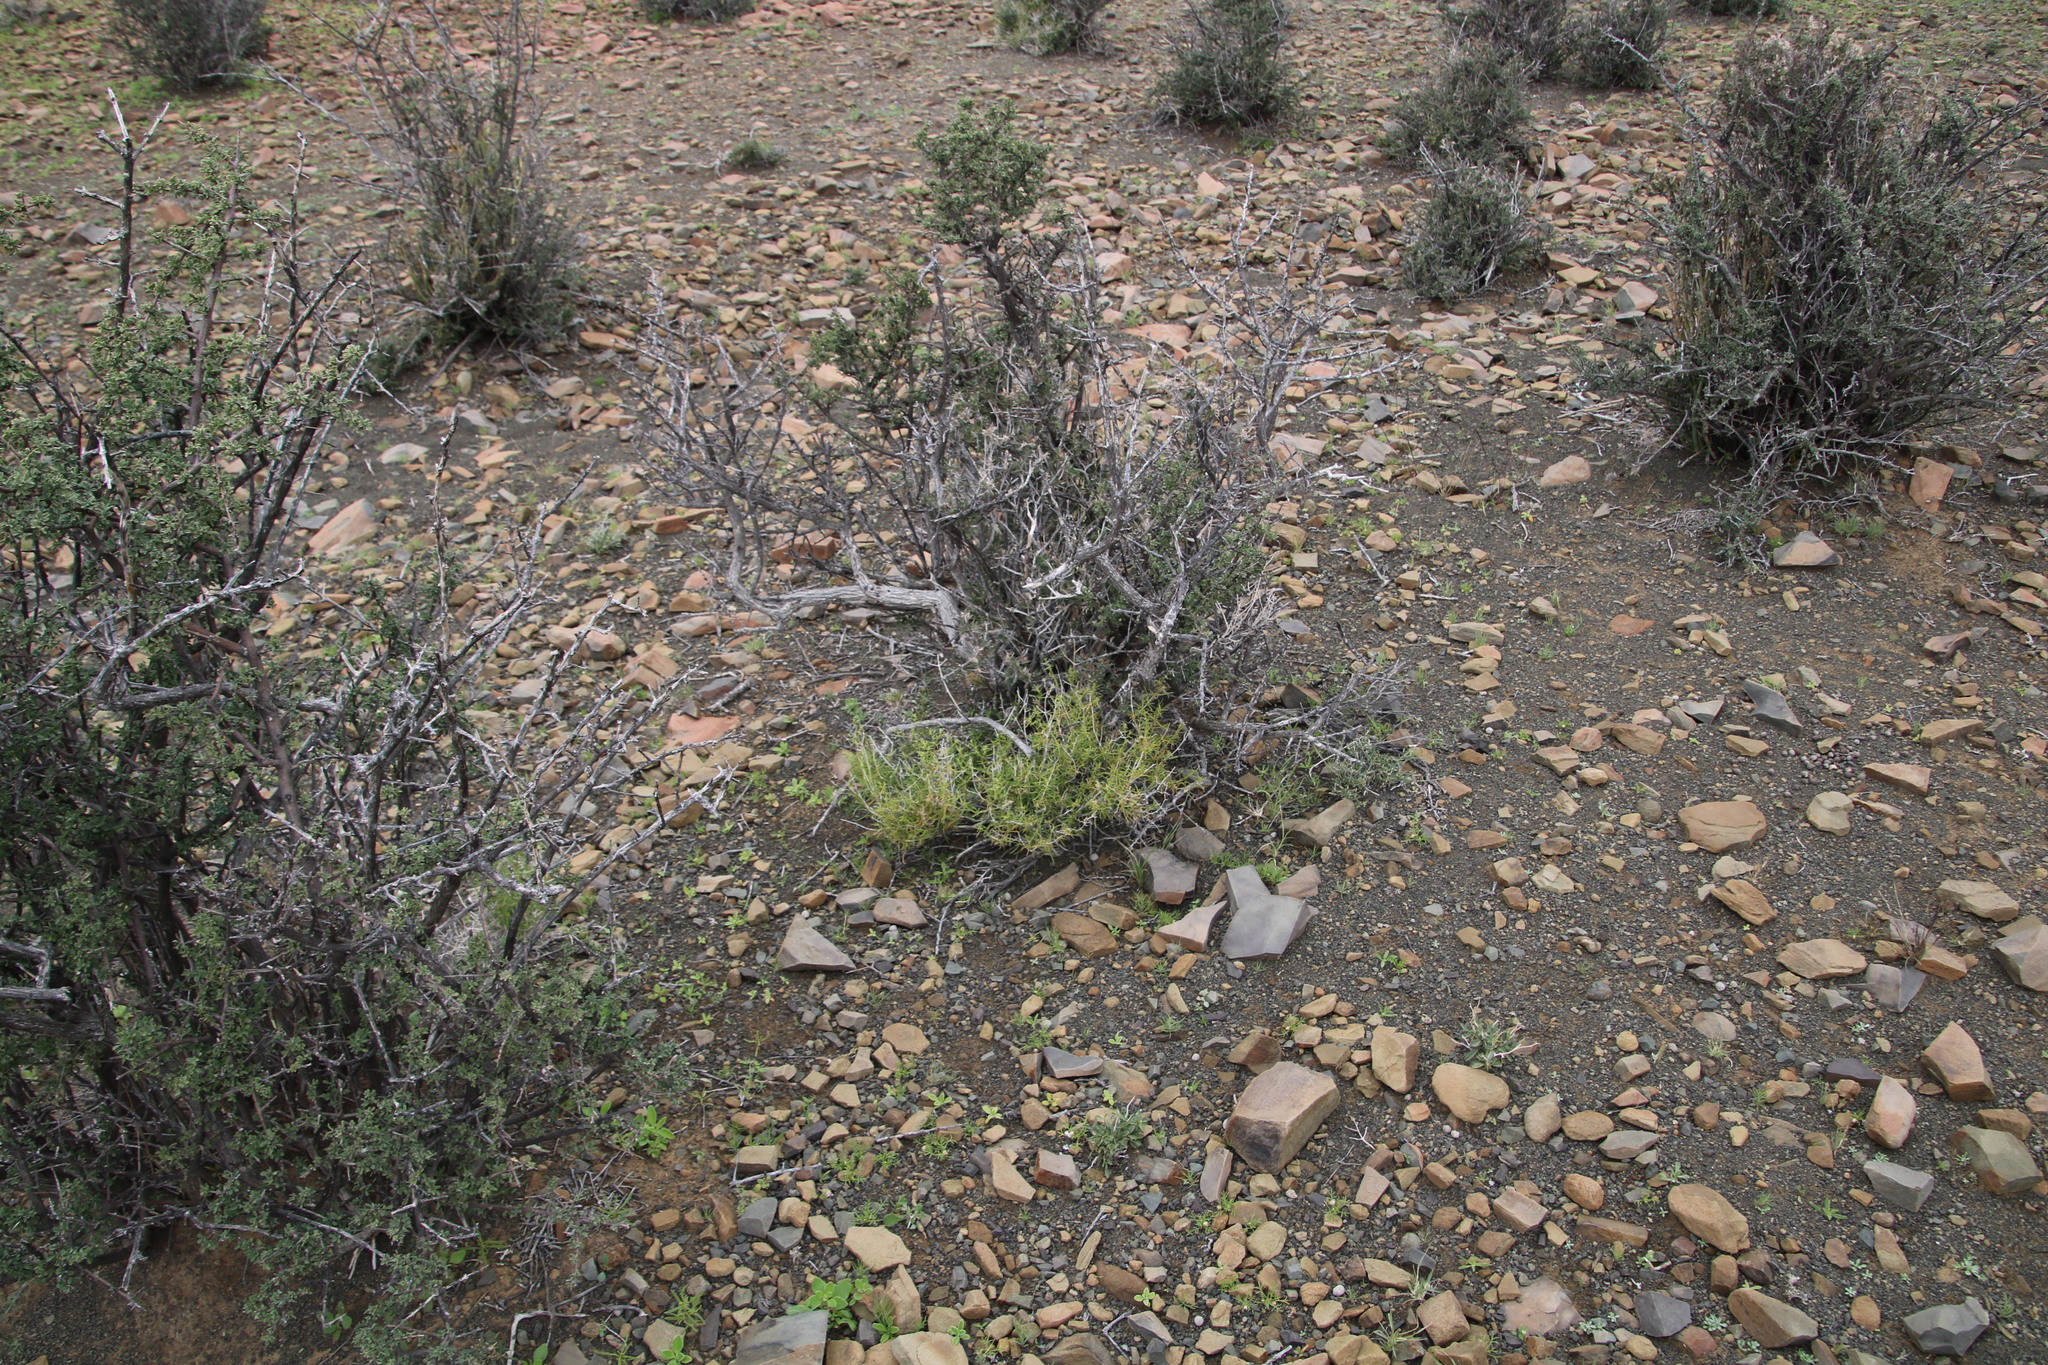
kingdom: Plantae
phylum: Tracheophyta
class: Magnoliopsida
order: Caryophyllales
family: Aizoaceae
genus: Aizoon
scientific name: Aizoon africanum
